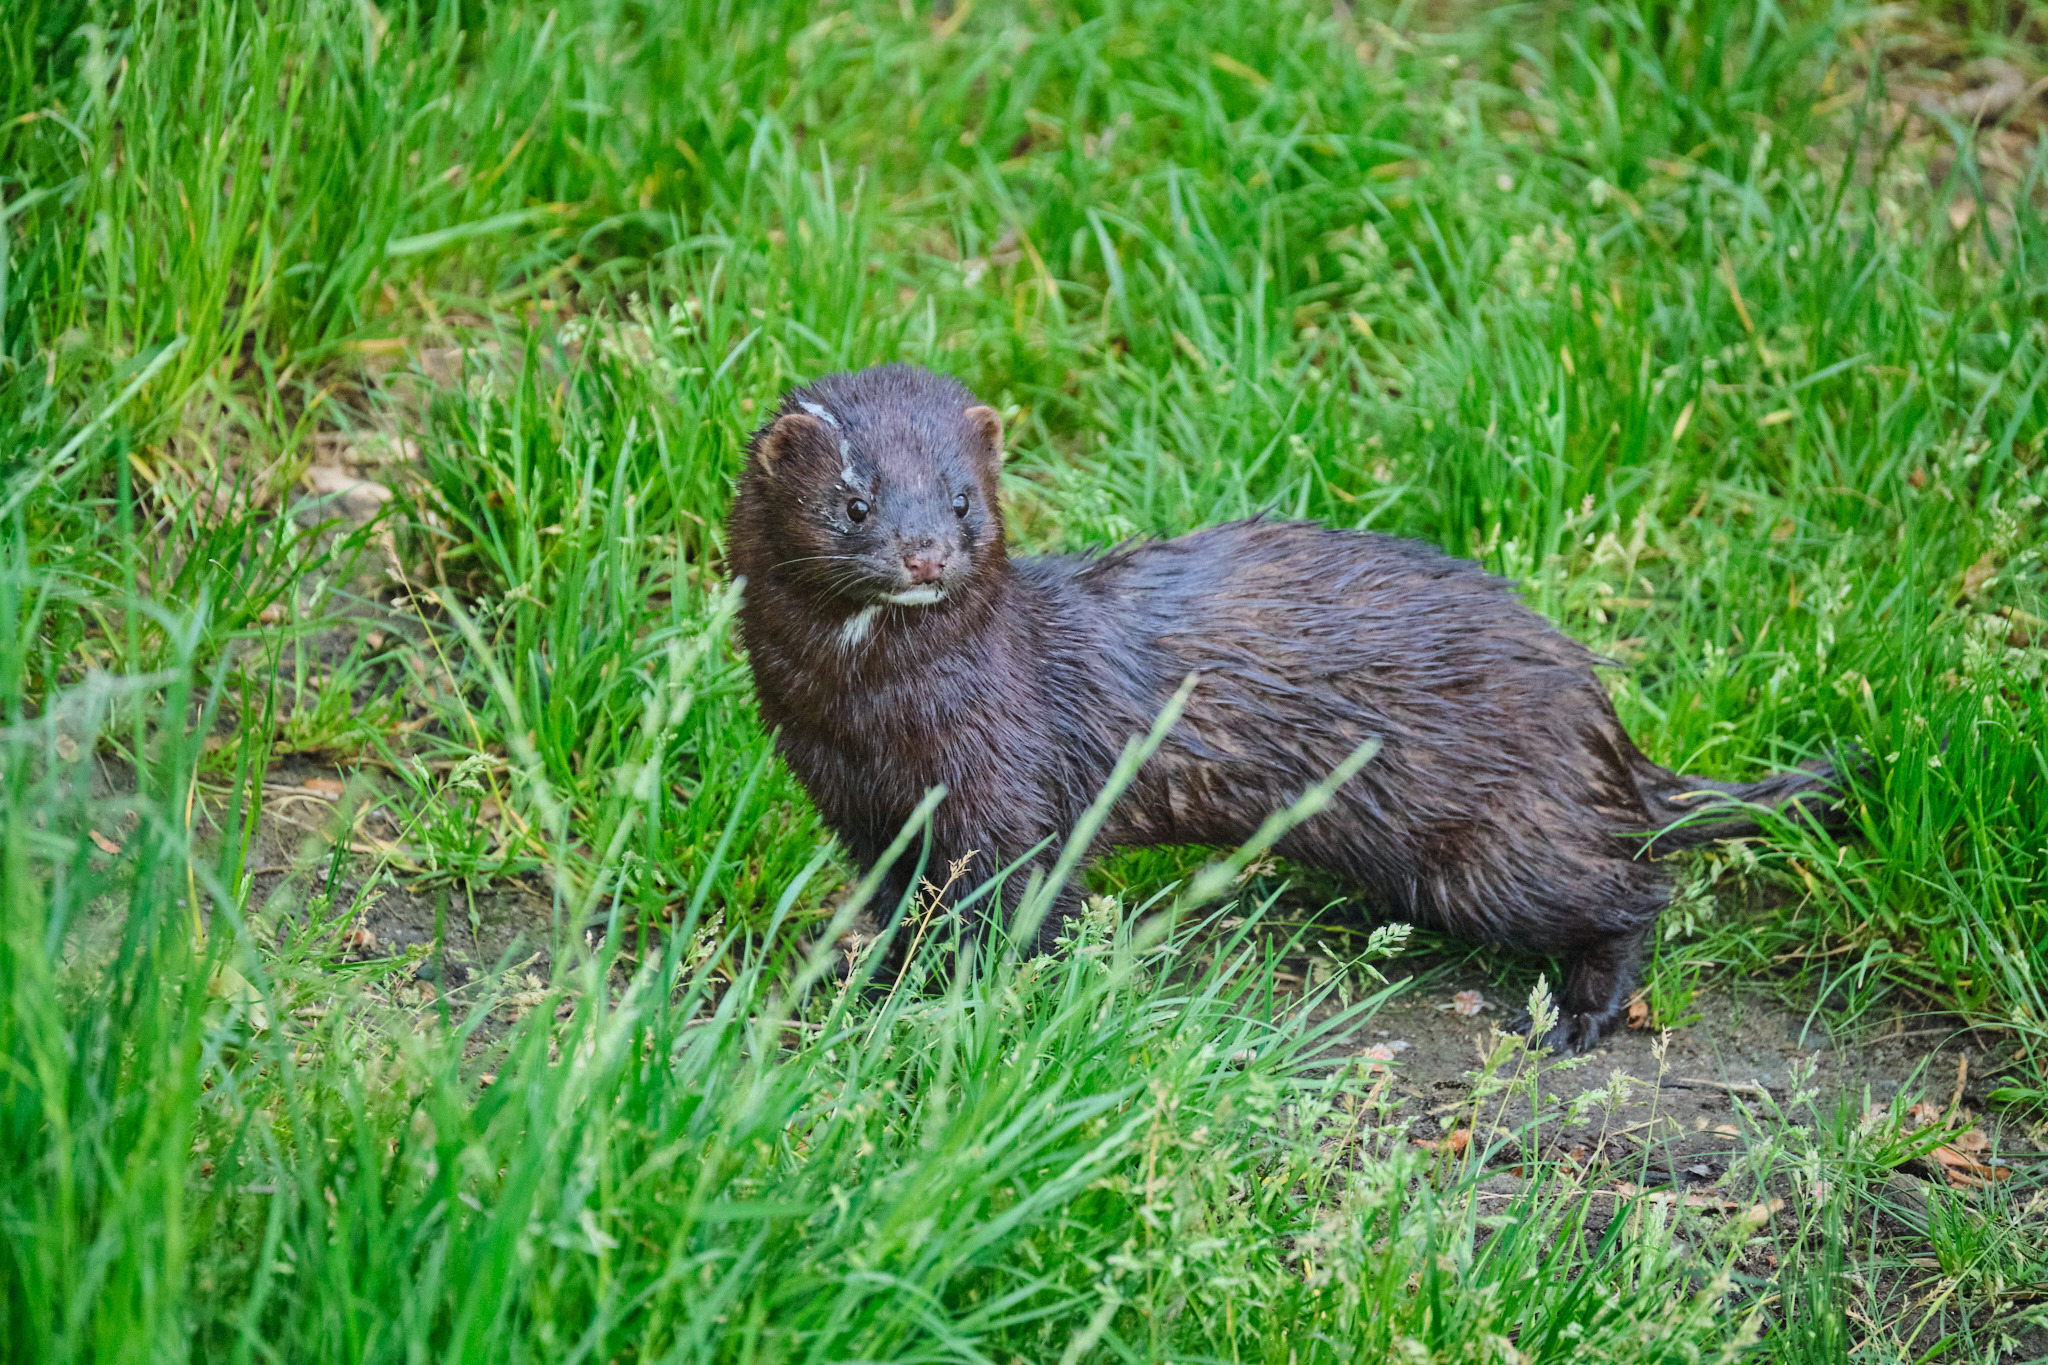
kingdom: Animalia
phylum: Chordata
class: Mammalia
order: Carnivora
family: Mustelidae
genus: Mustela
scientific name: Mustela
